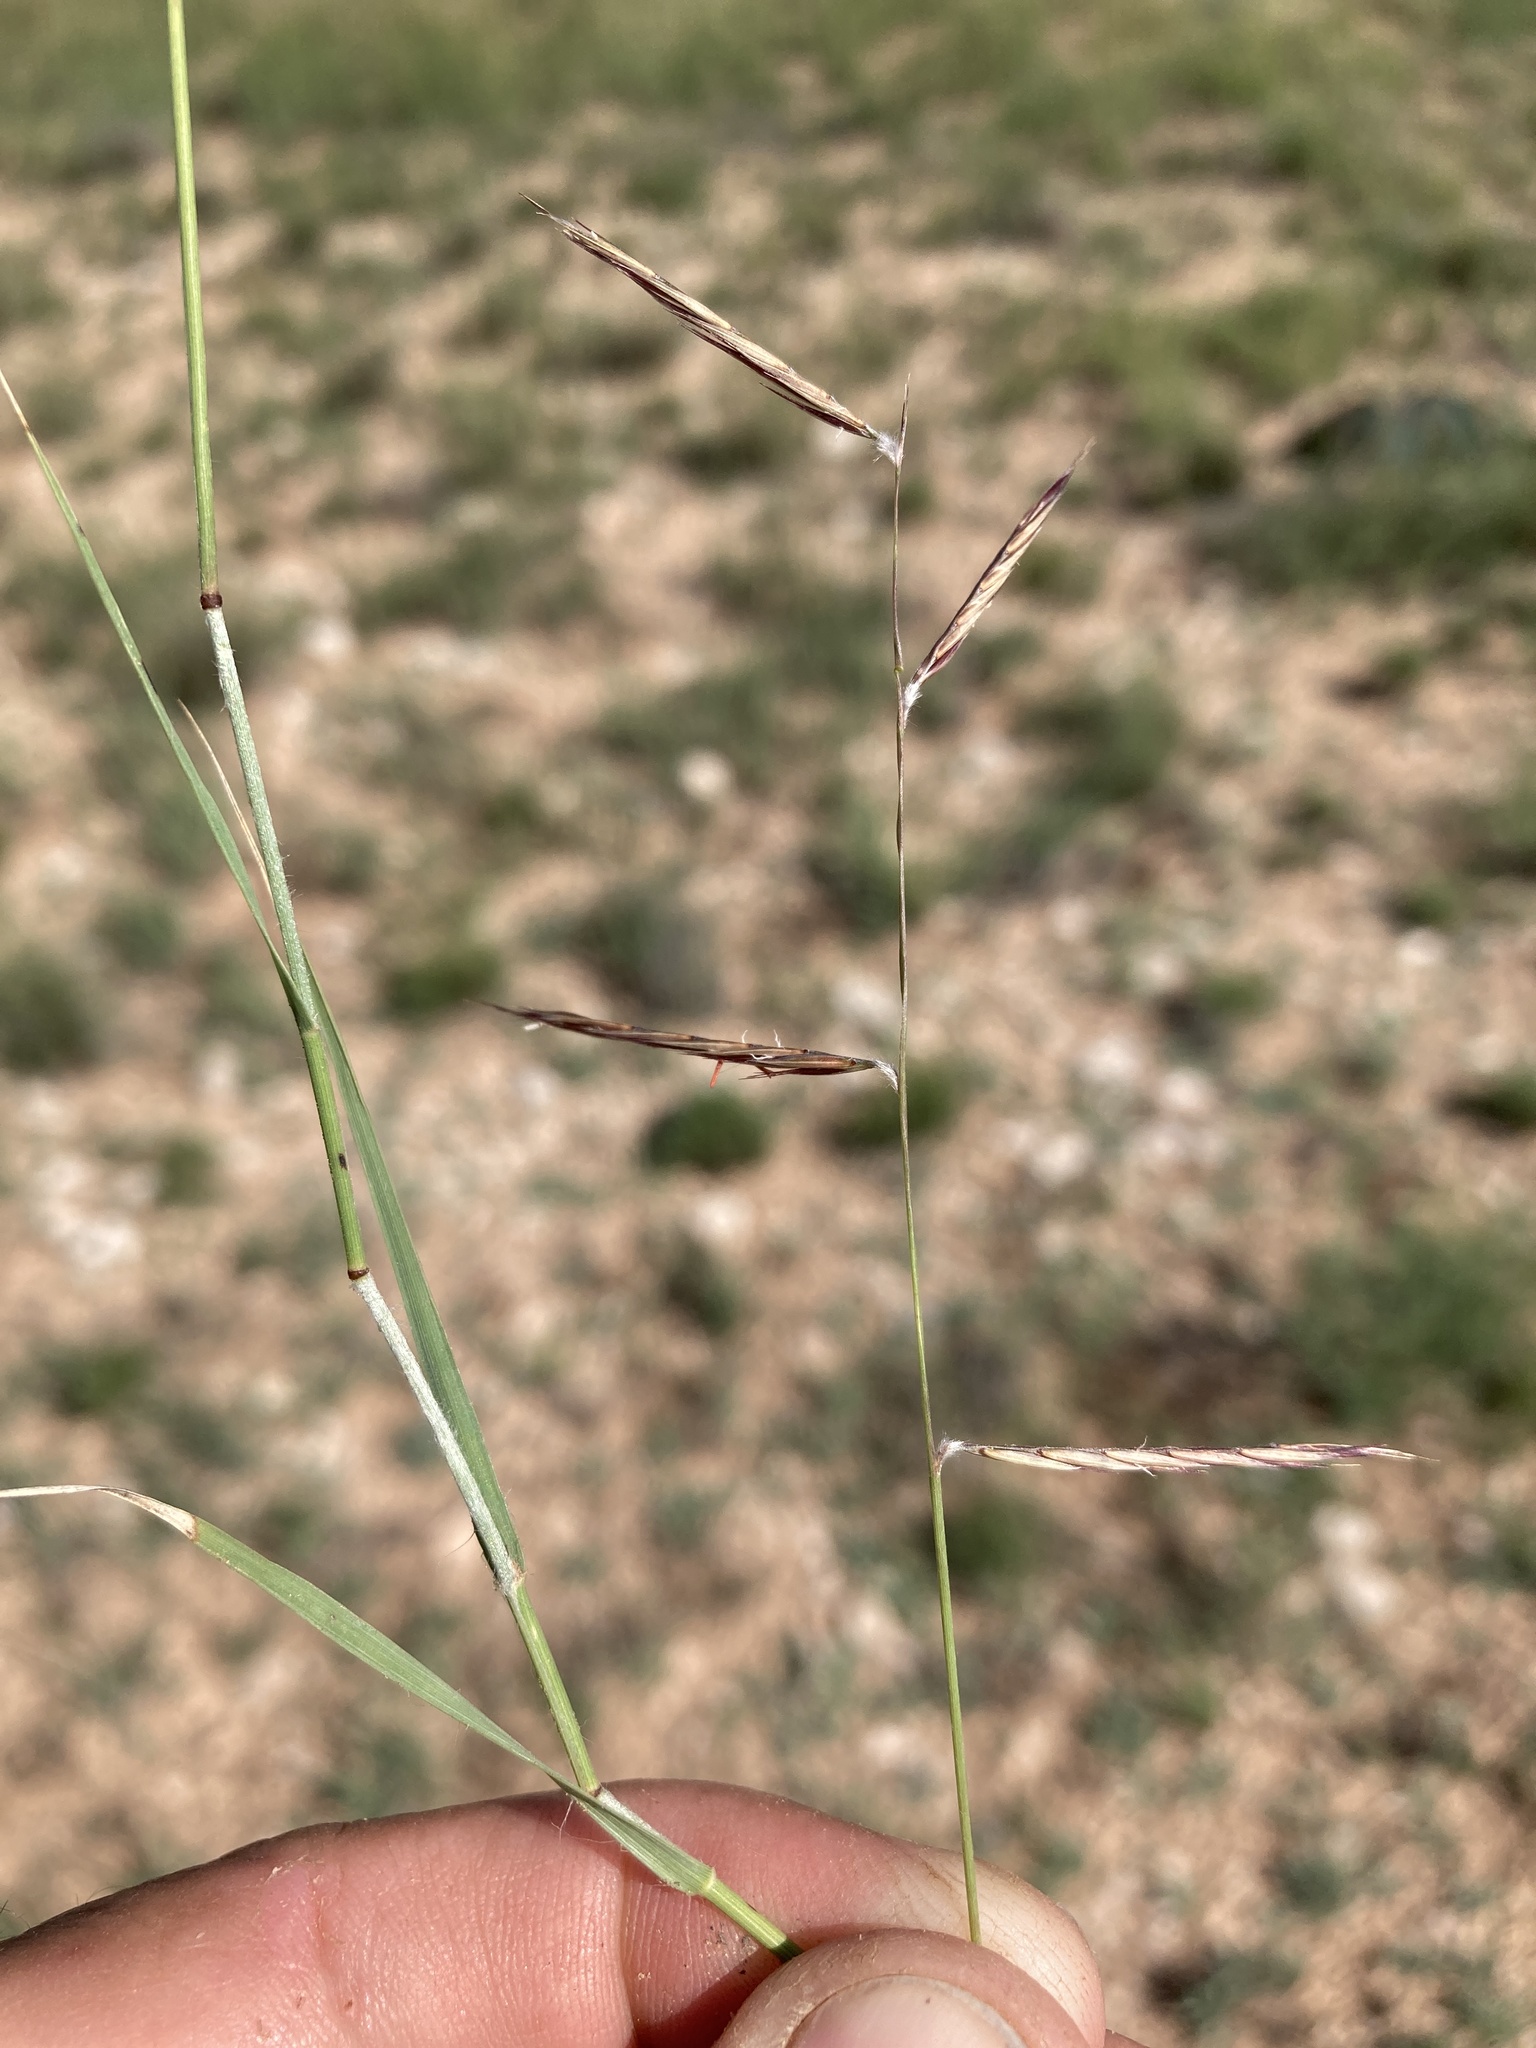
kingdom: Plantae
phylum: Tracheophyta
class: Liliopsida
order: Poales
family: Poaceae
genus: Bouteloua
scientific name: Bouteloua eriopoda
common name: Woolly foot grama
